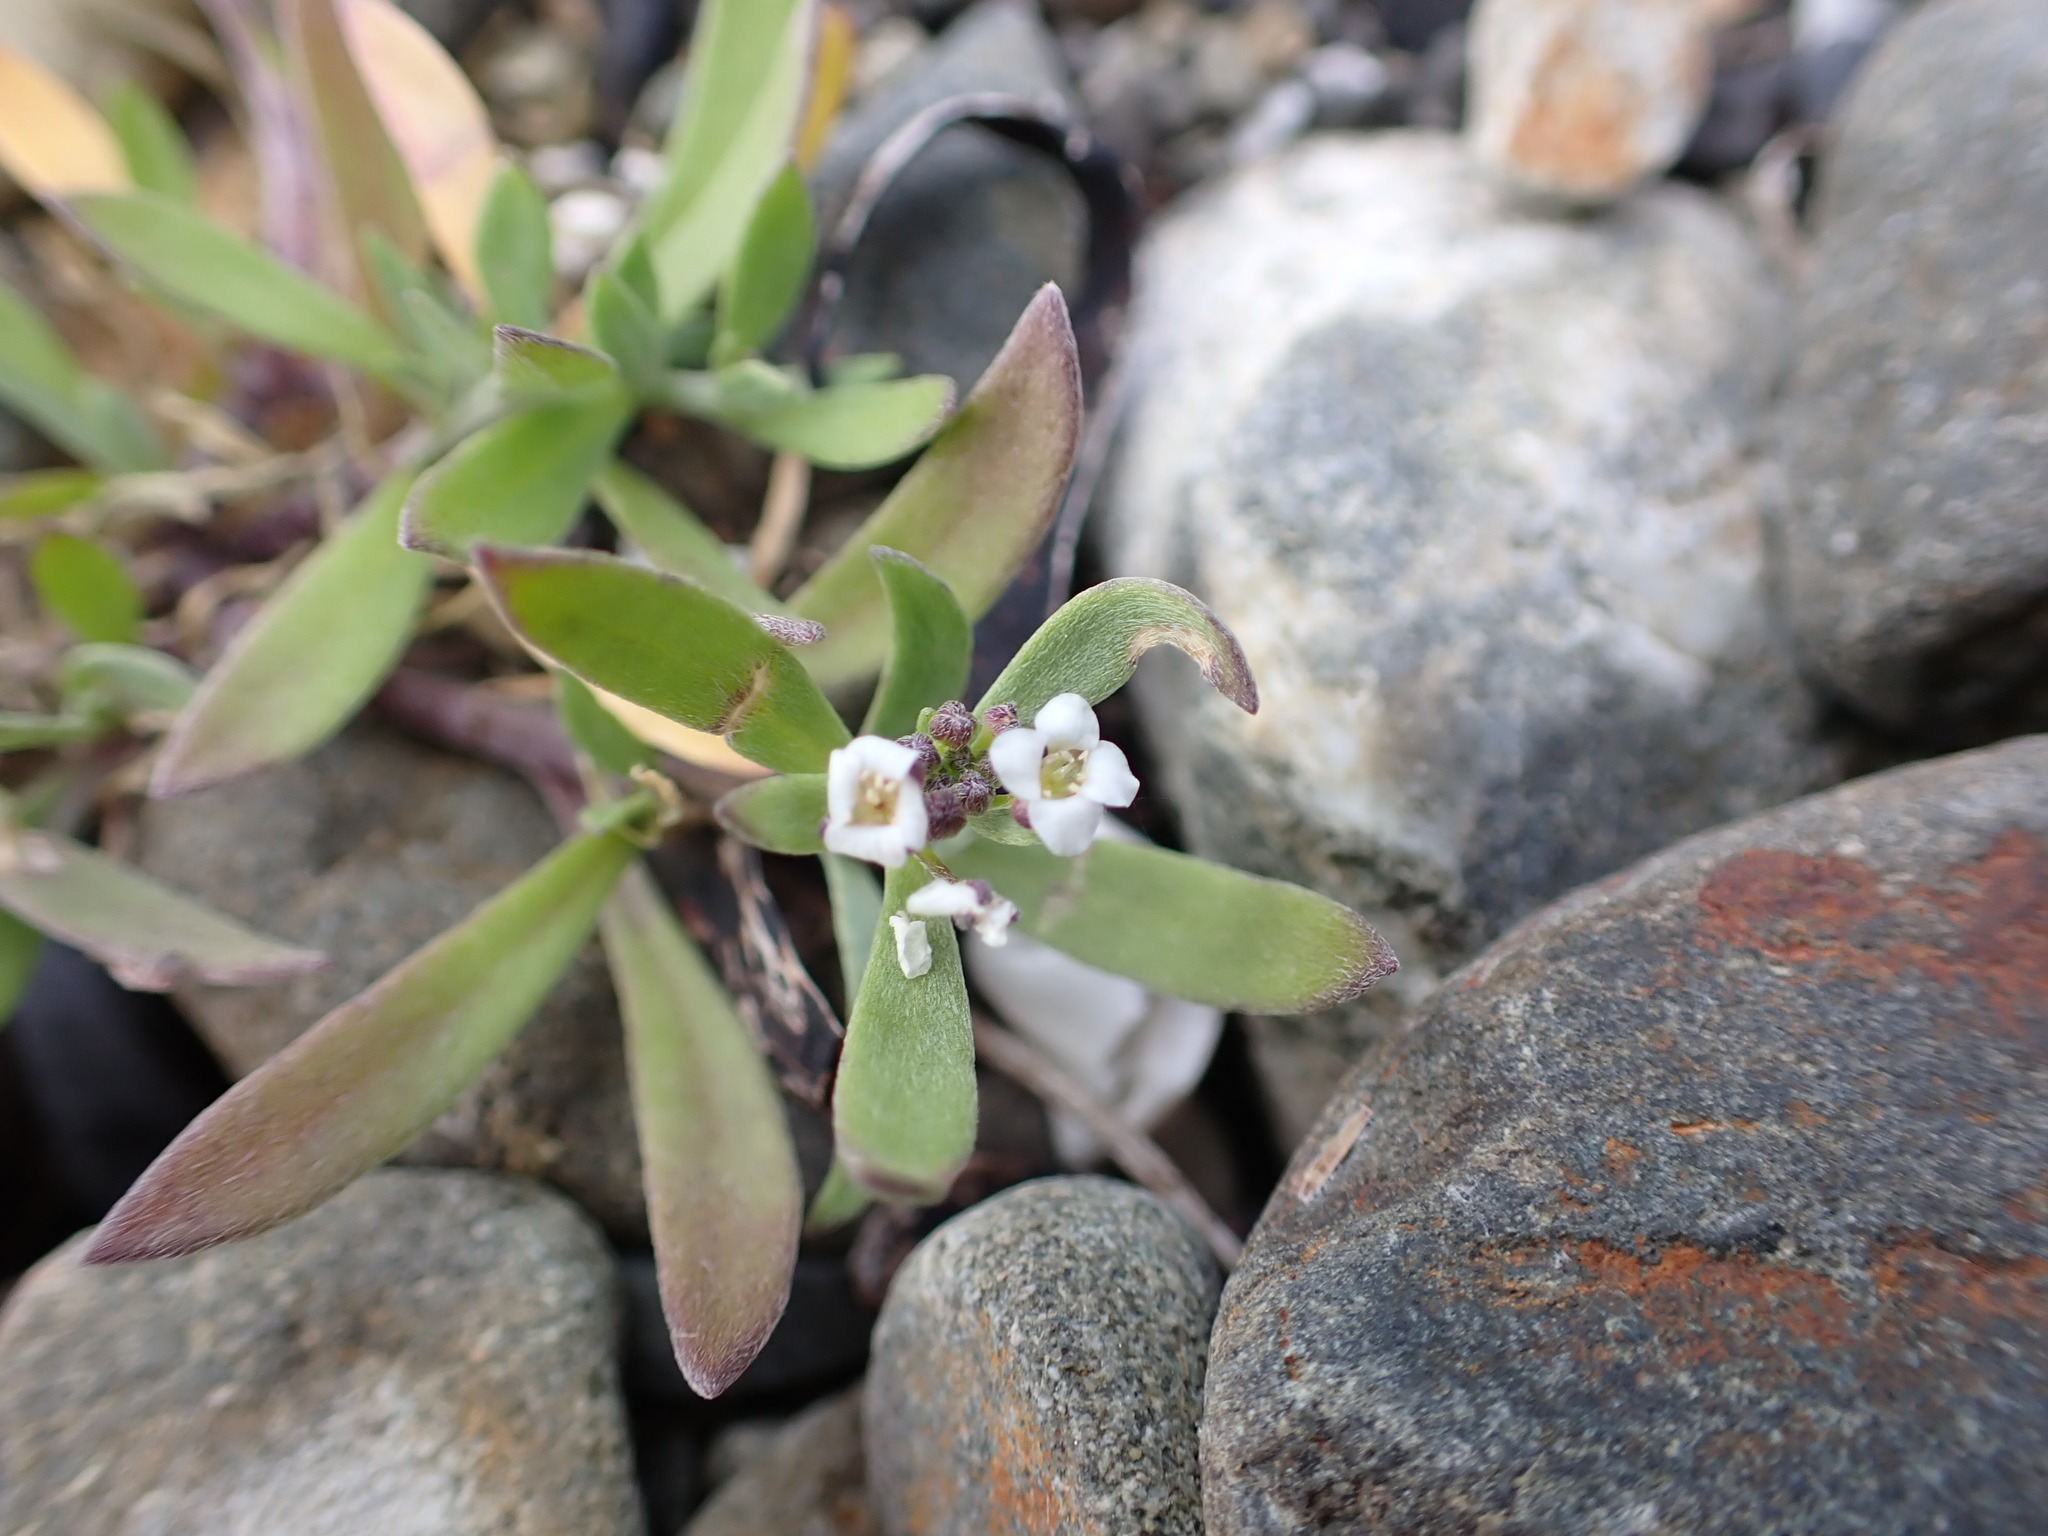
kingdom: Plantae
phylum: Tracheophyta
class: Magnoliopsida
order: Brassicales
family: Brassicaceae
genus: Lobularia
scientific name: Lobularia maritima
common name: Sweet alison
